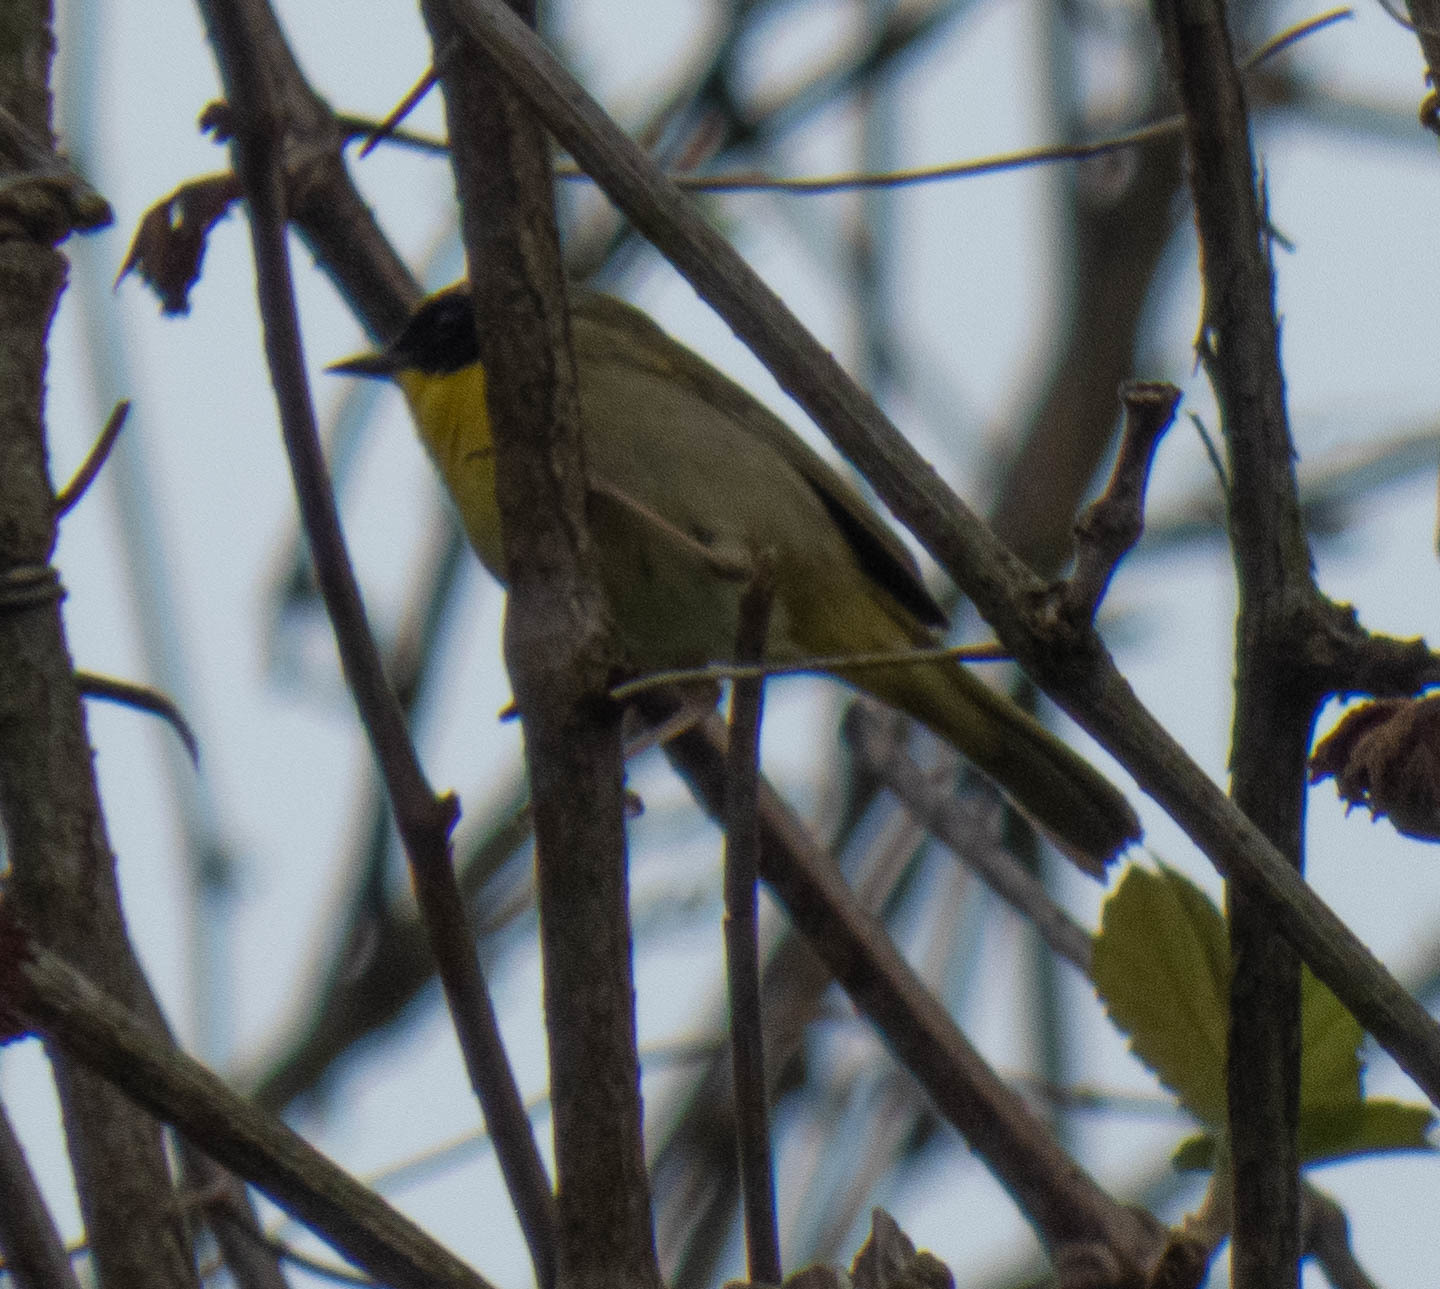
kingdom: Animalia
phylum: Chordata
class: Aves
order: Passeriformes
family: Parulidae
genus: Geothlypis
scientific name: Geothlypis trichas
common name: Common yellowthroat
